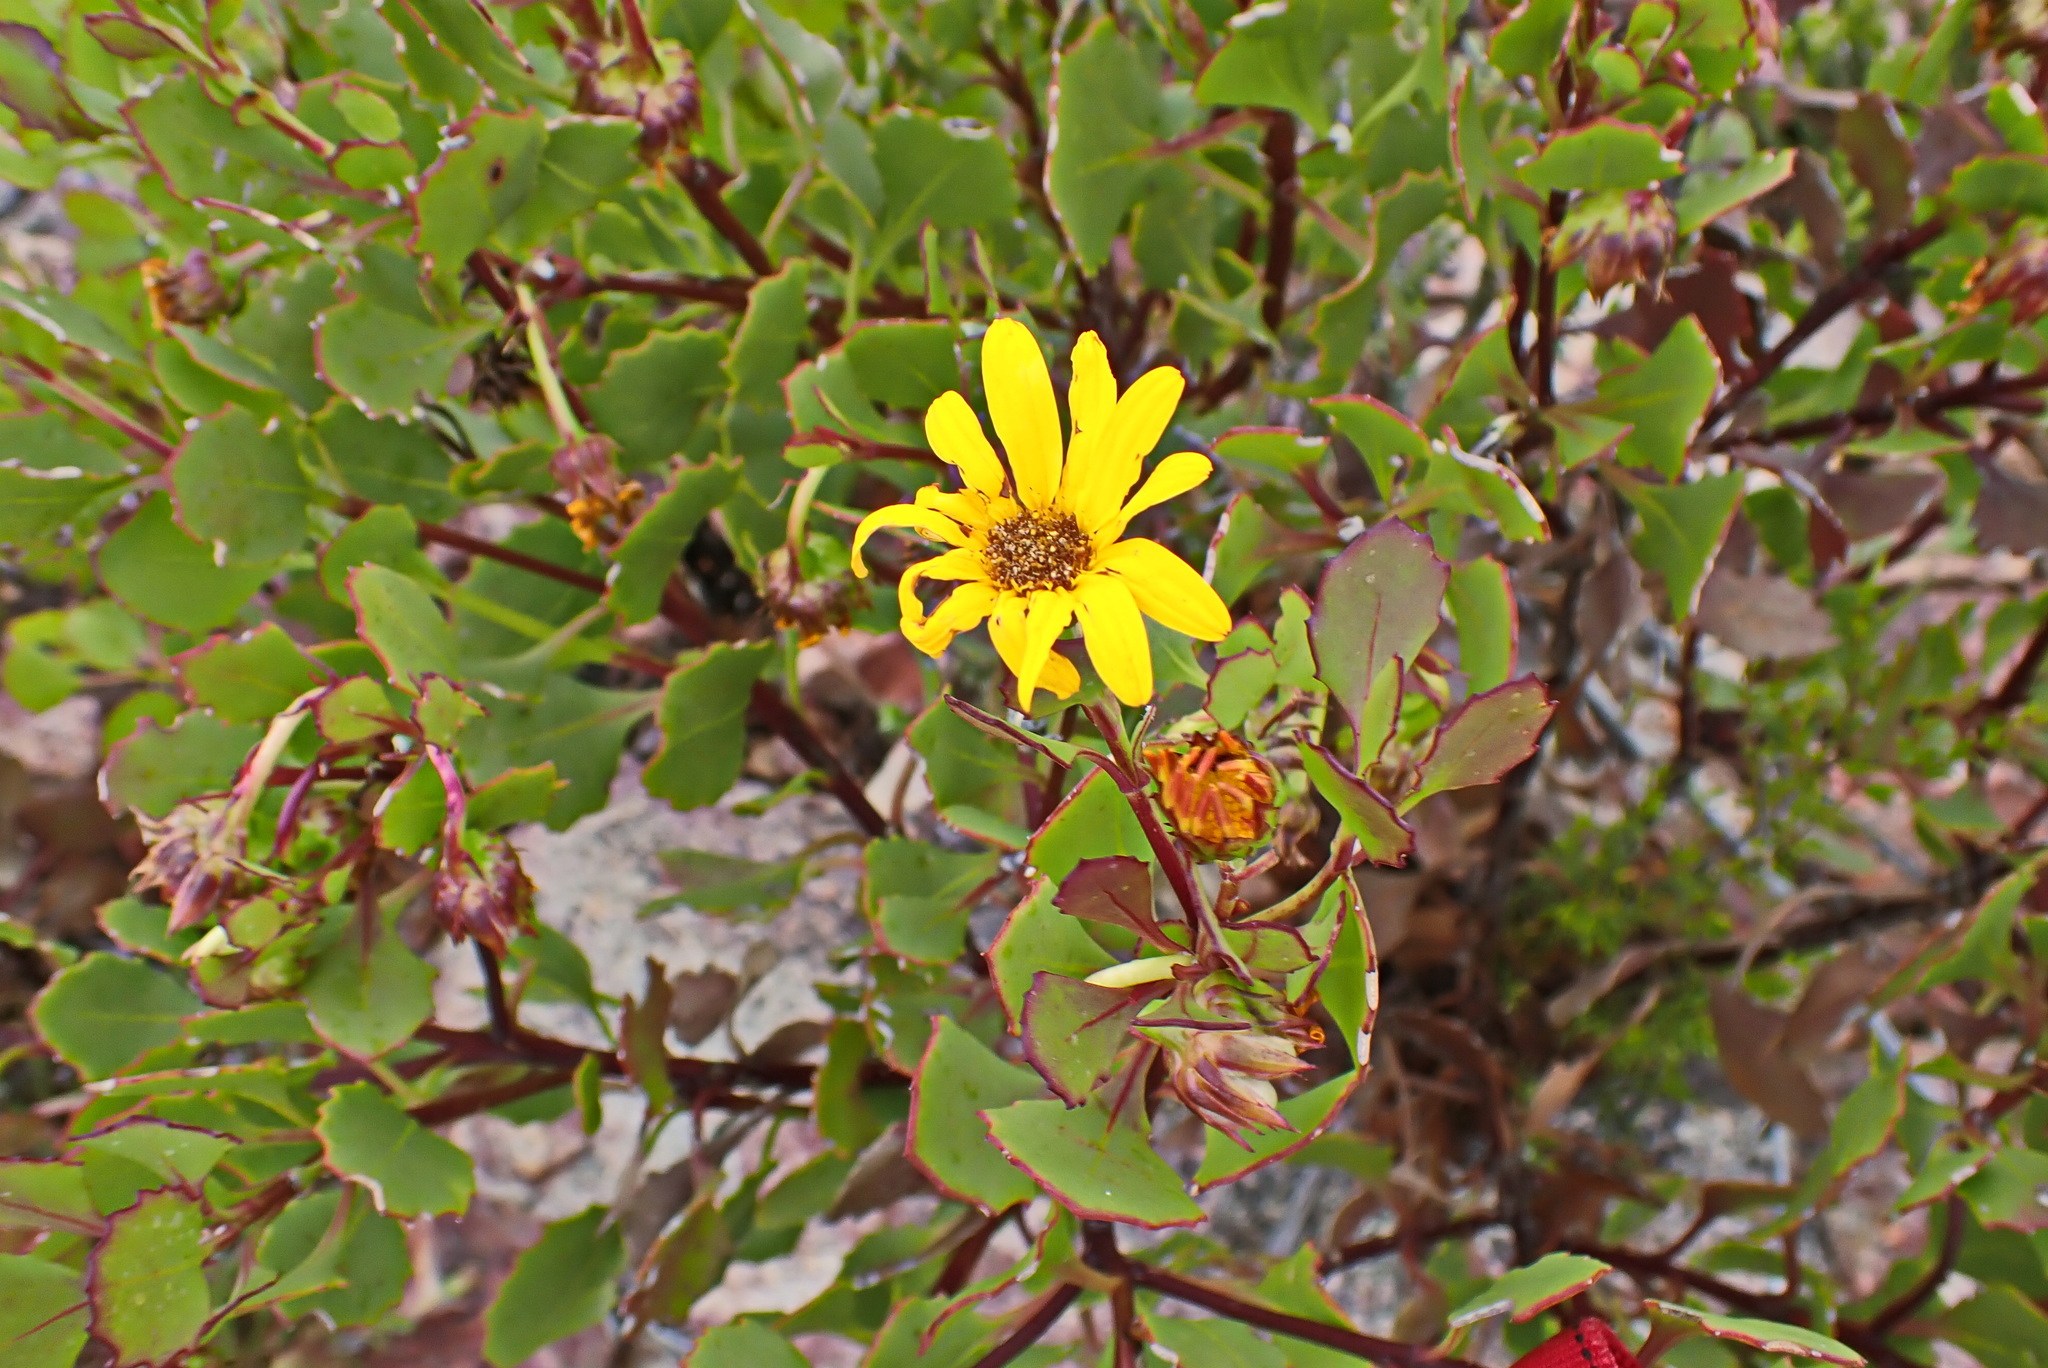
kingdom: Plantae
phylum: Tracheophyta
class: Magnoliopsida
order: Asterales
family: Asteraceae
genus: Osteospermum
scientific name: Osteospermum moniliferum
